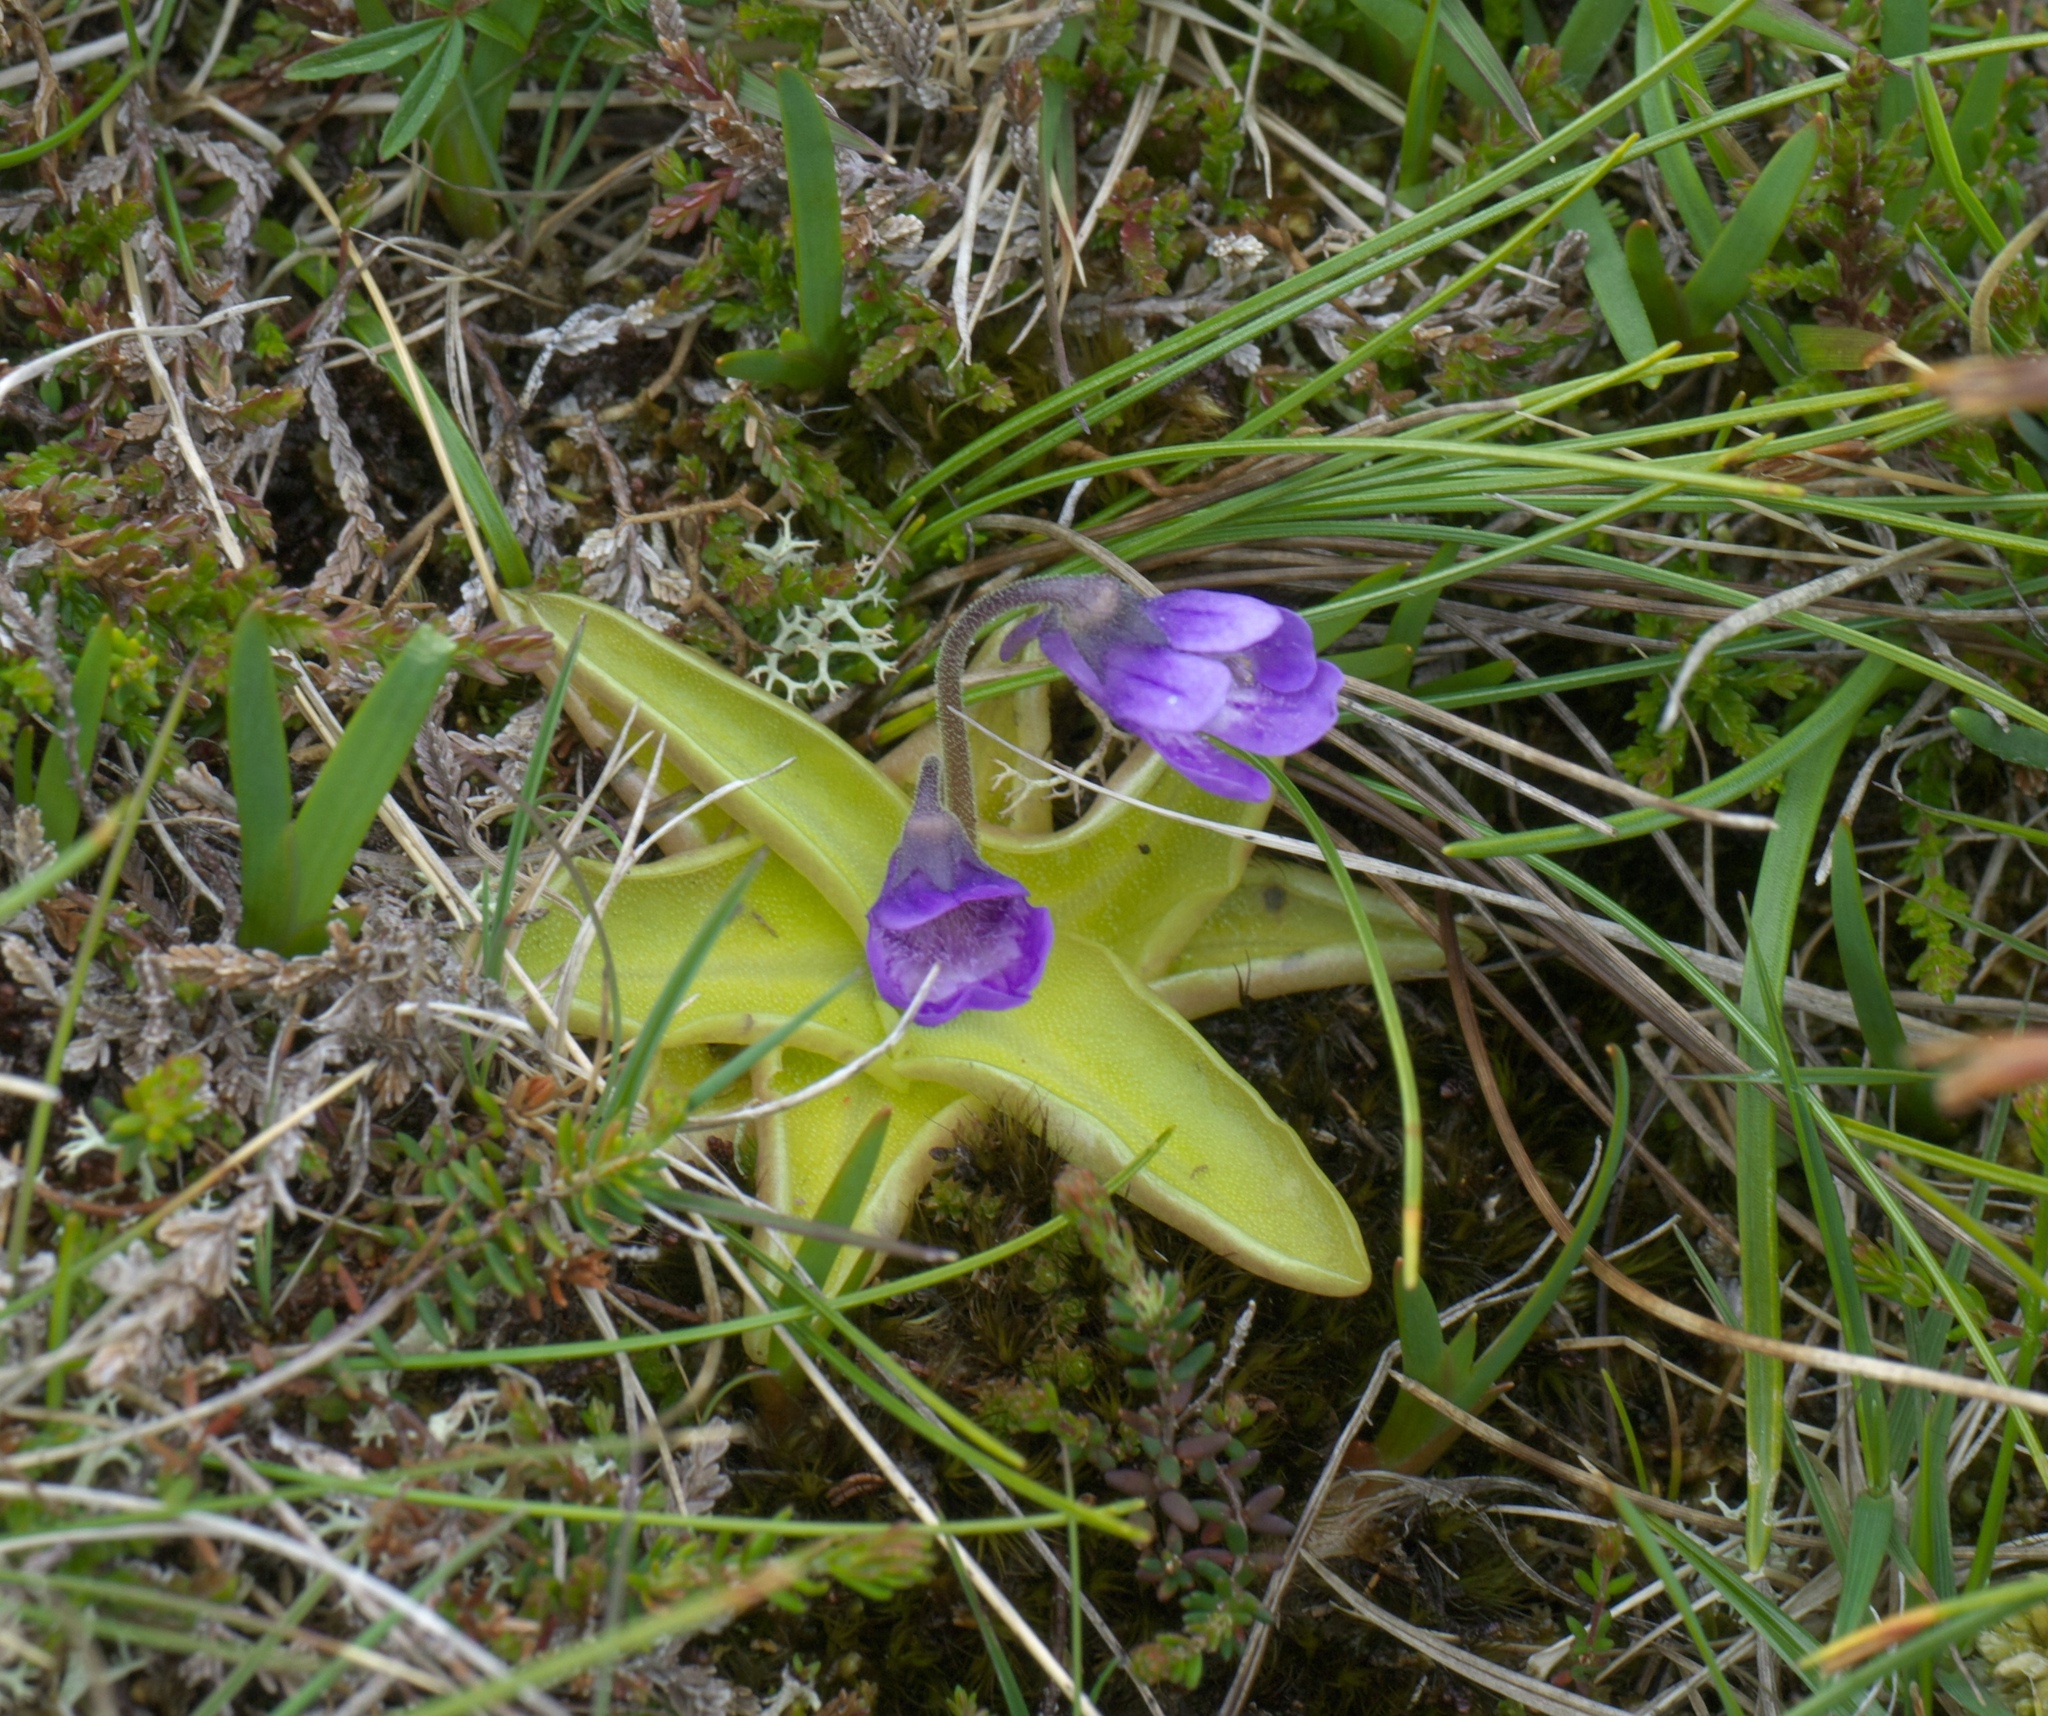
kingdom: Plantae
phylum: Tracheophyta
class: Magnoliopsida
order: Lamiales
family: Lentibulariaceae
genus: Pinguicula
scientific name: Pinguicula vulgaris
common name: Common butterwort
